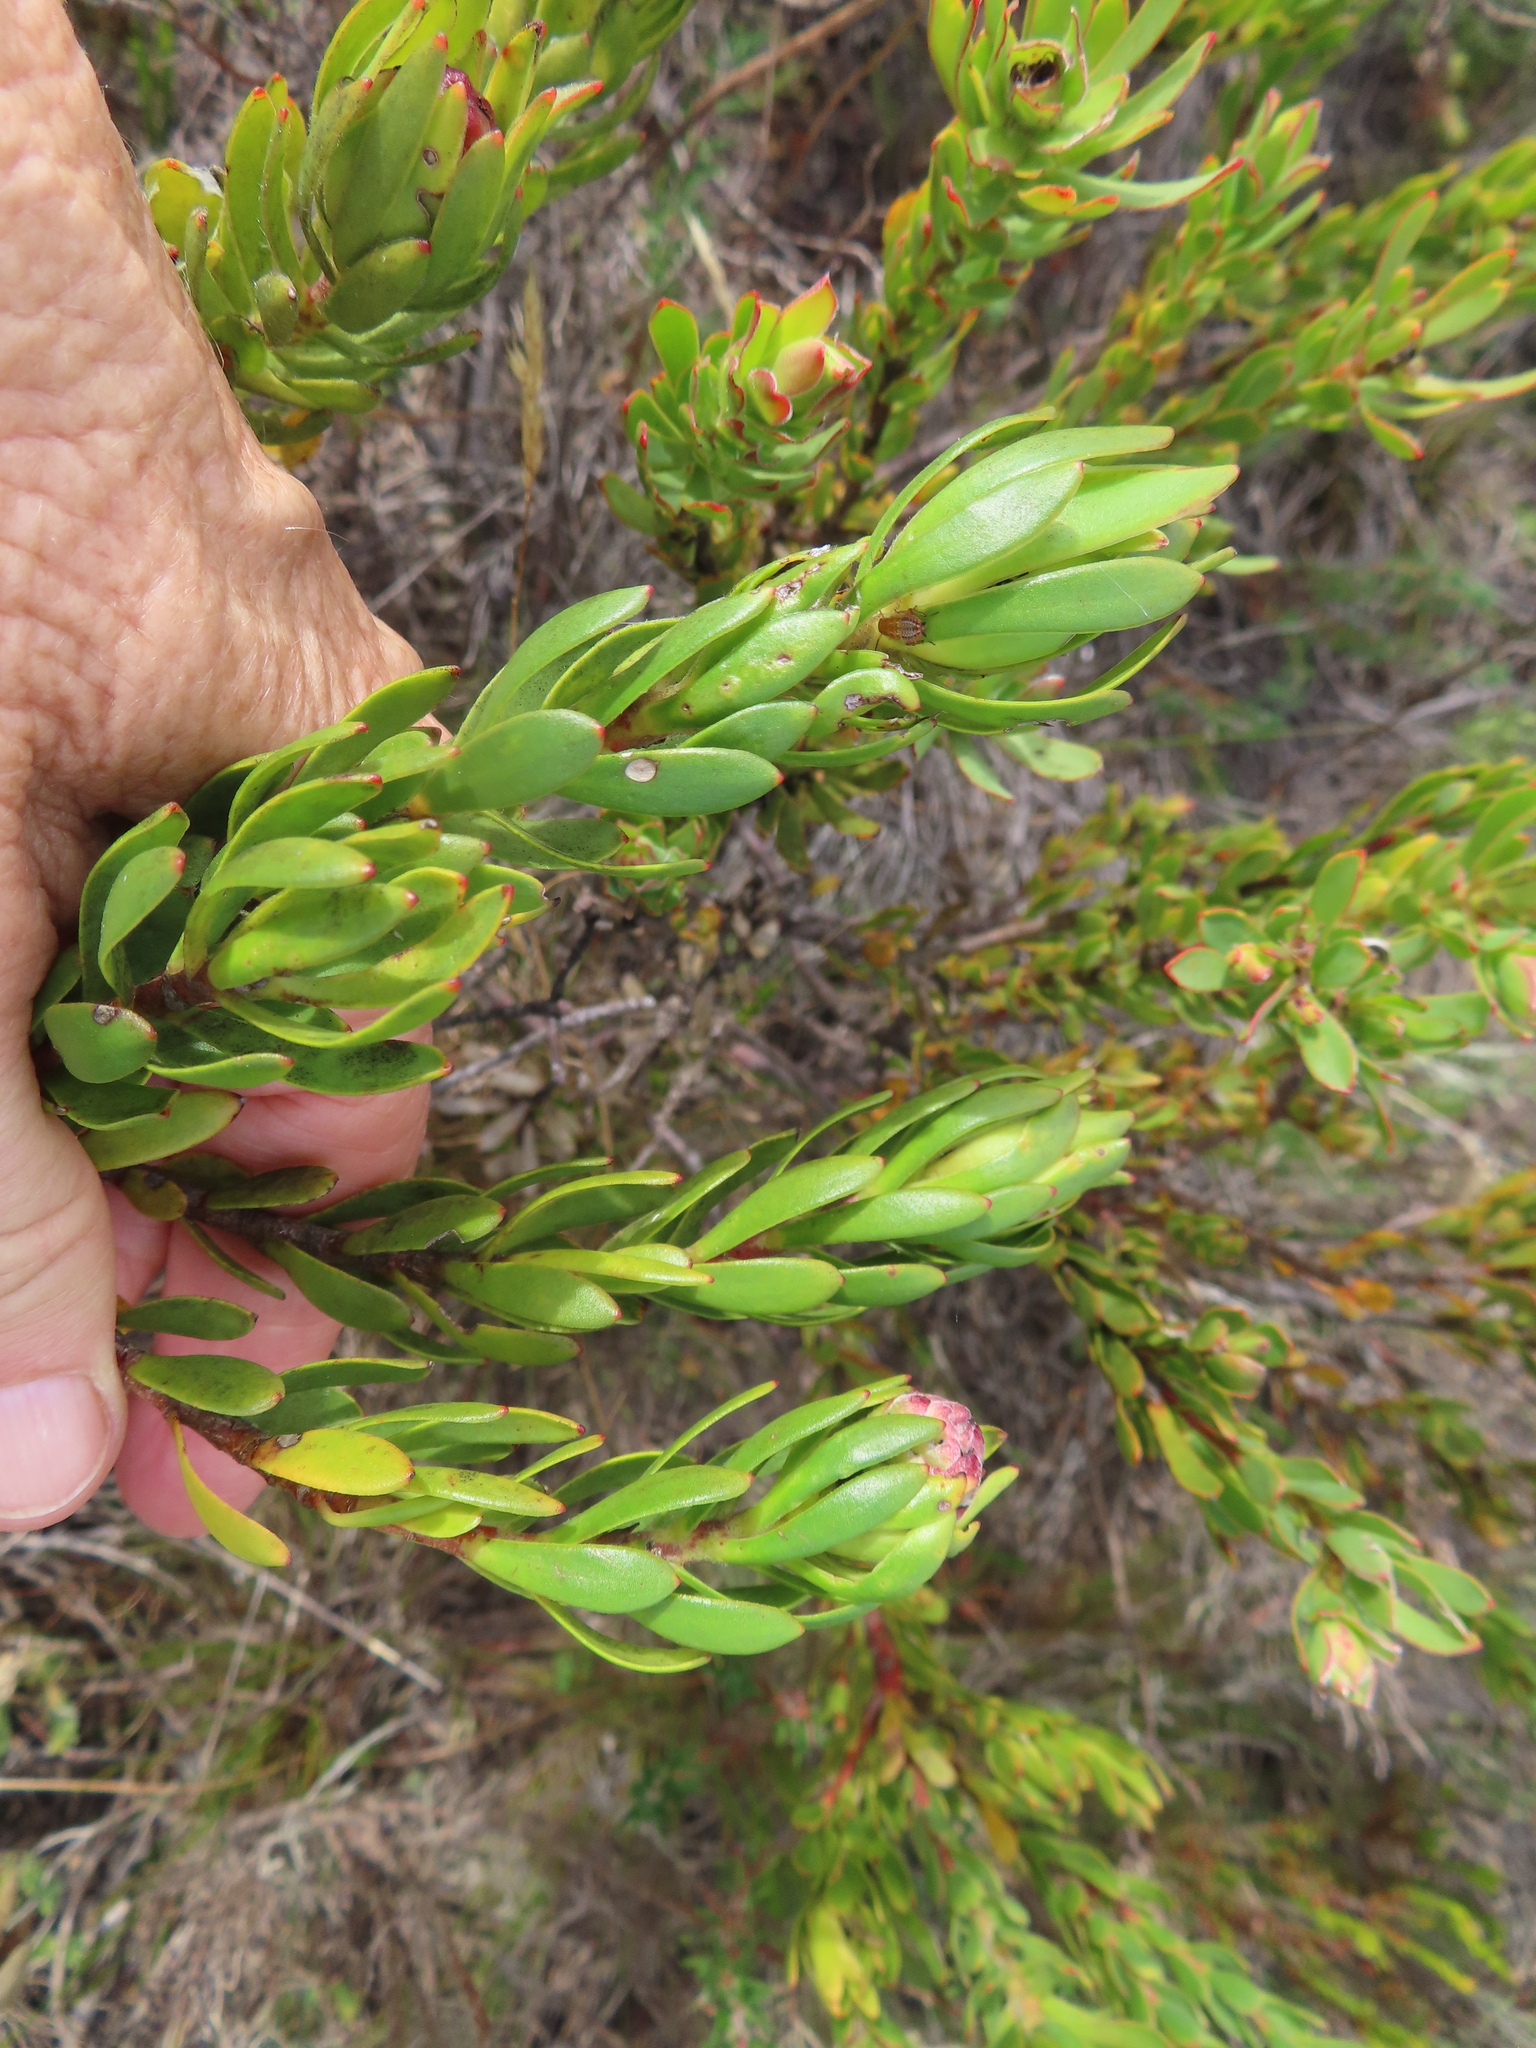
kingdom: Plantae
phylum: Tracheophyta
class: Magnoliopsida
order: Proteales
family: Proteaceae
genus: Leucadendron
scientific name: Leucadendron stelligerum
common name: Agulhas conebush
